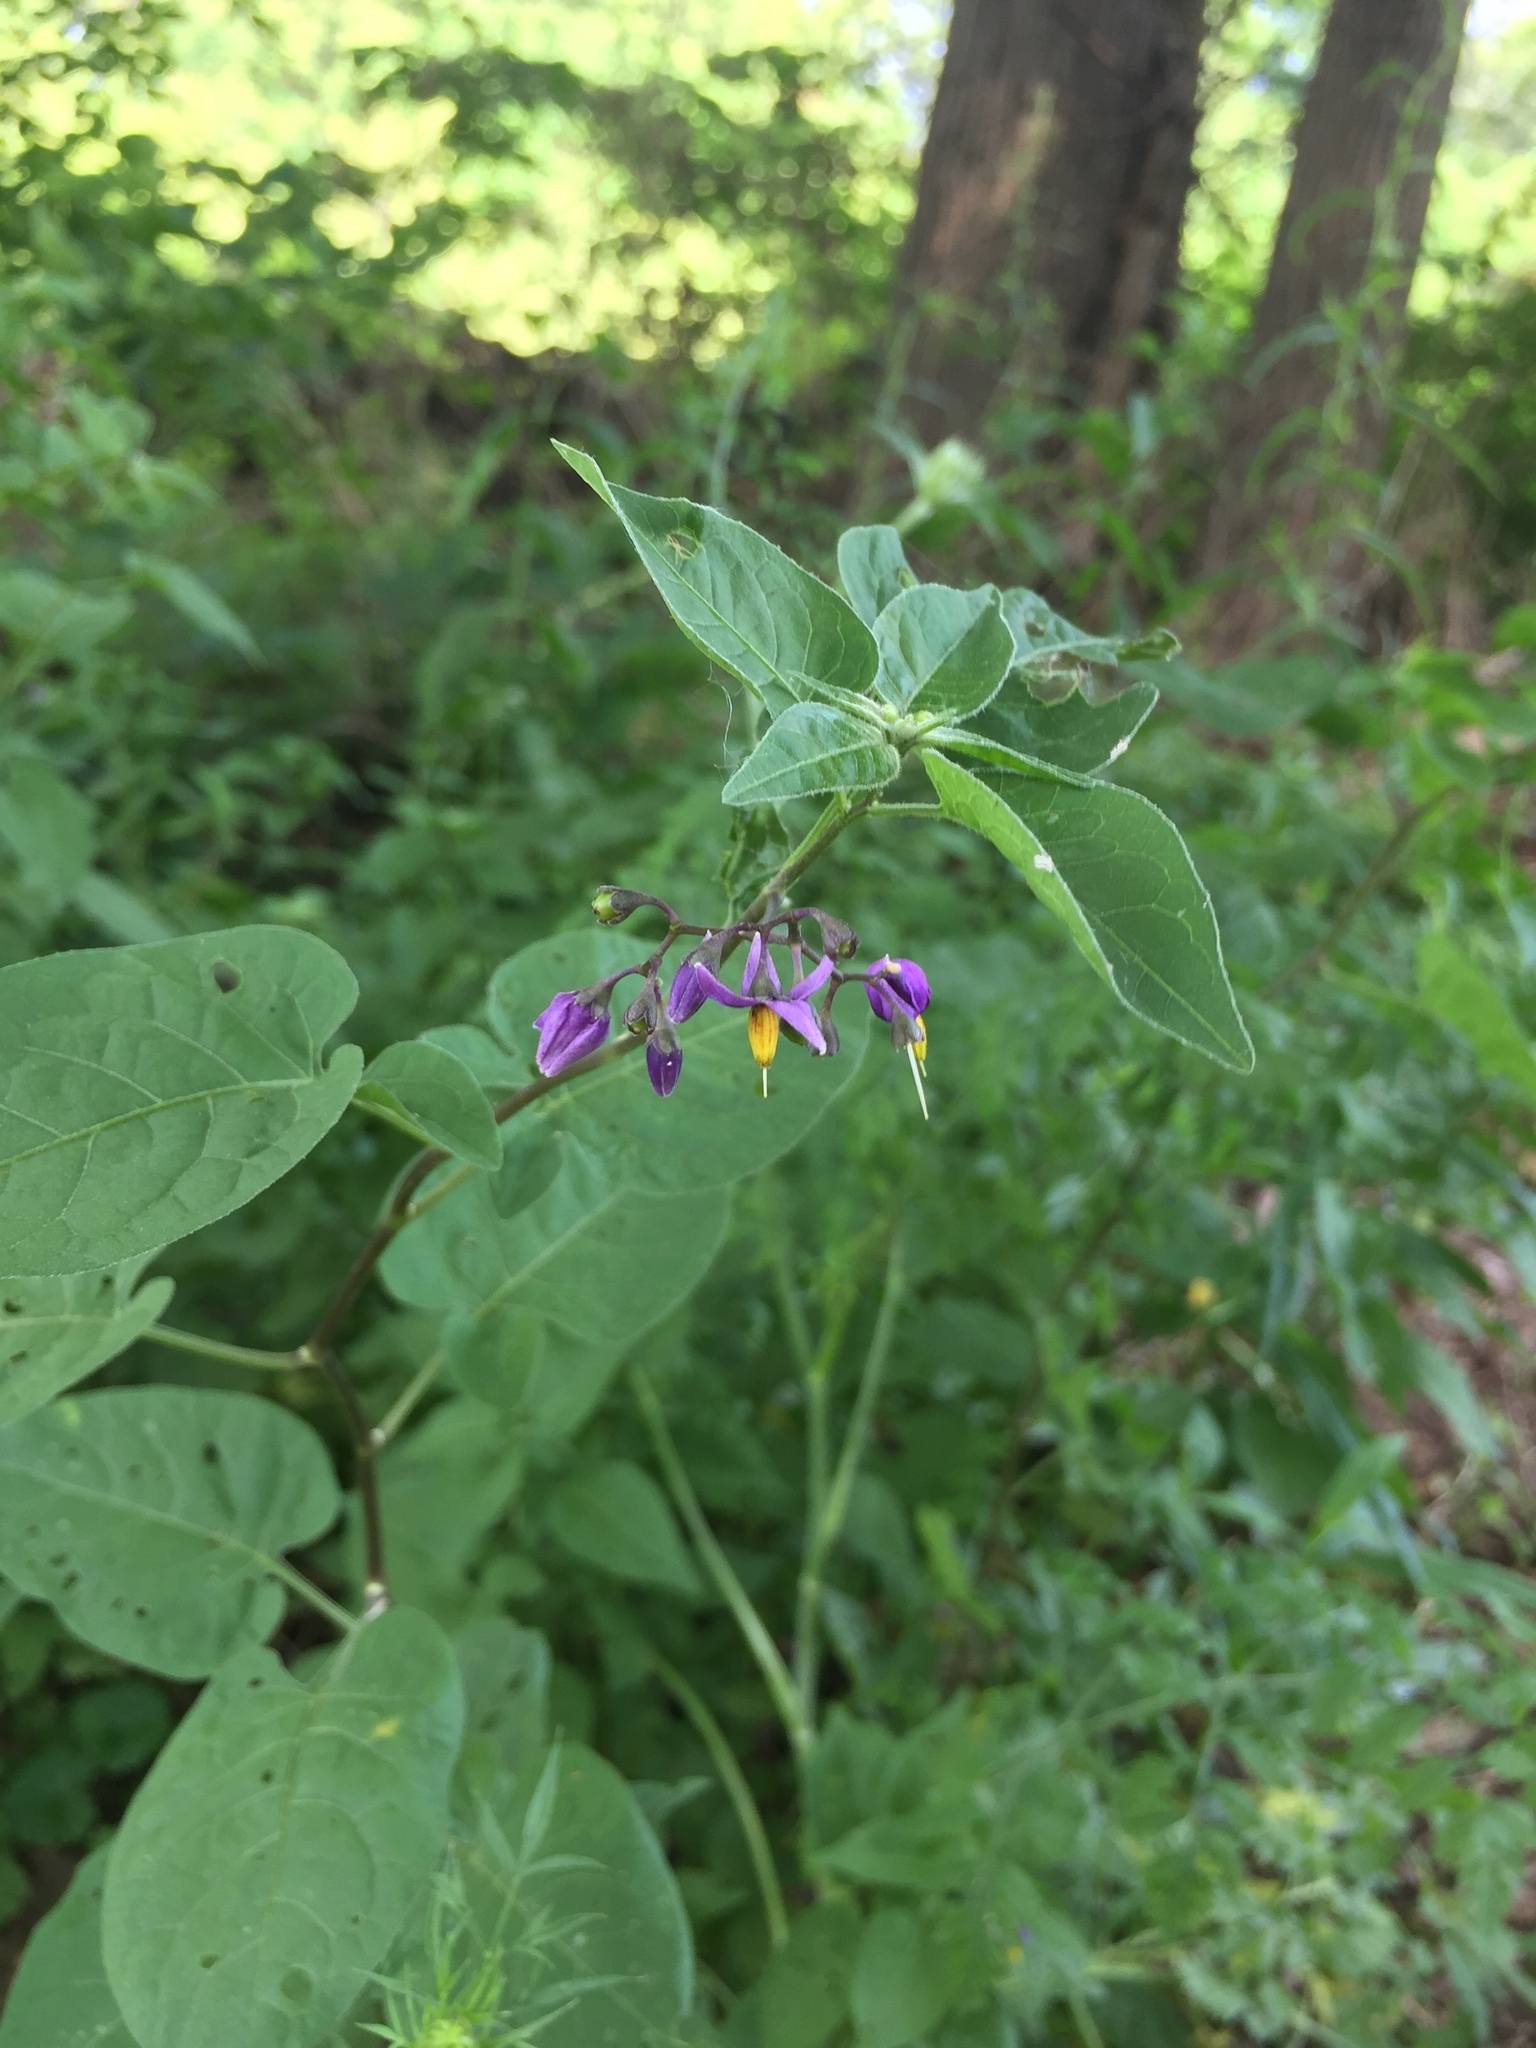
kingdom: Plantae
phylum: Tracheophyta
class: Magnoliopsida
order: Solanales
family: Solanaceae
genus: Solanum
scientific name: Solanum dulcamara
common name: Climbing nightshade
